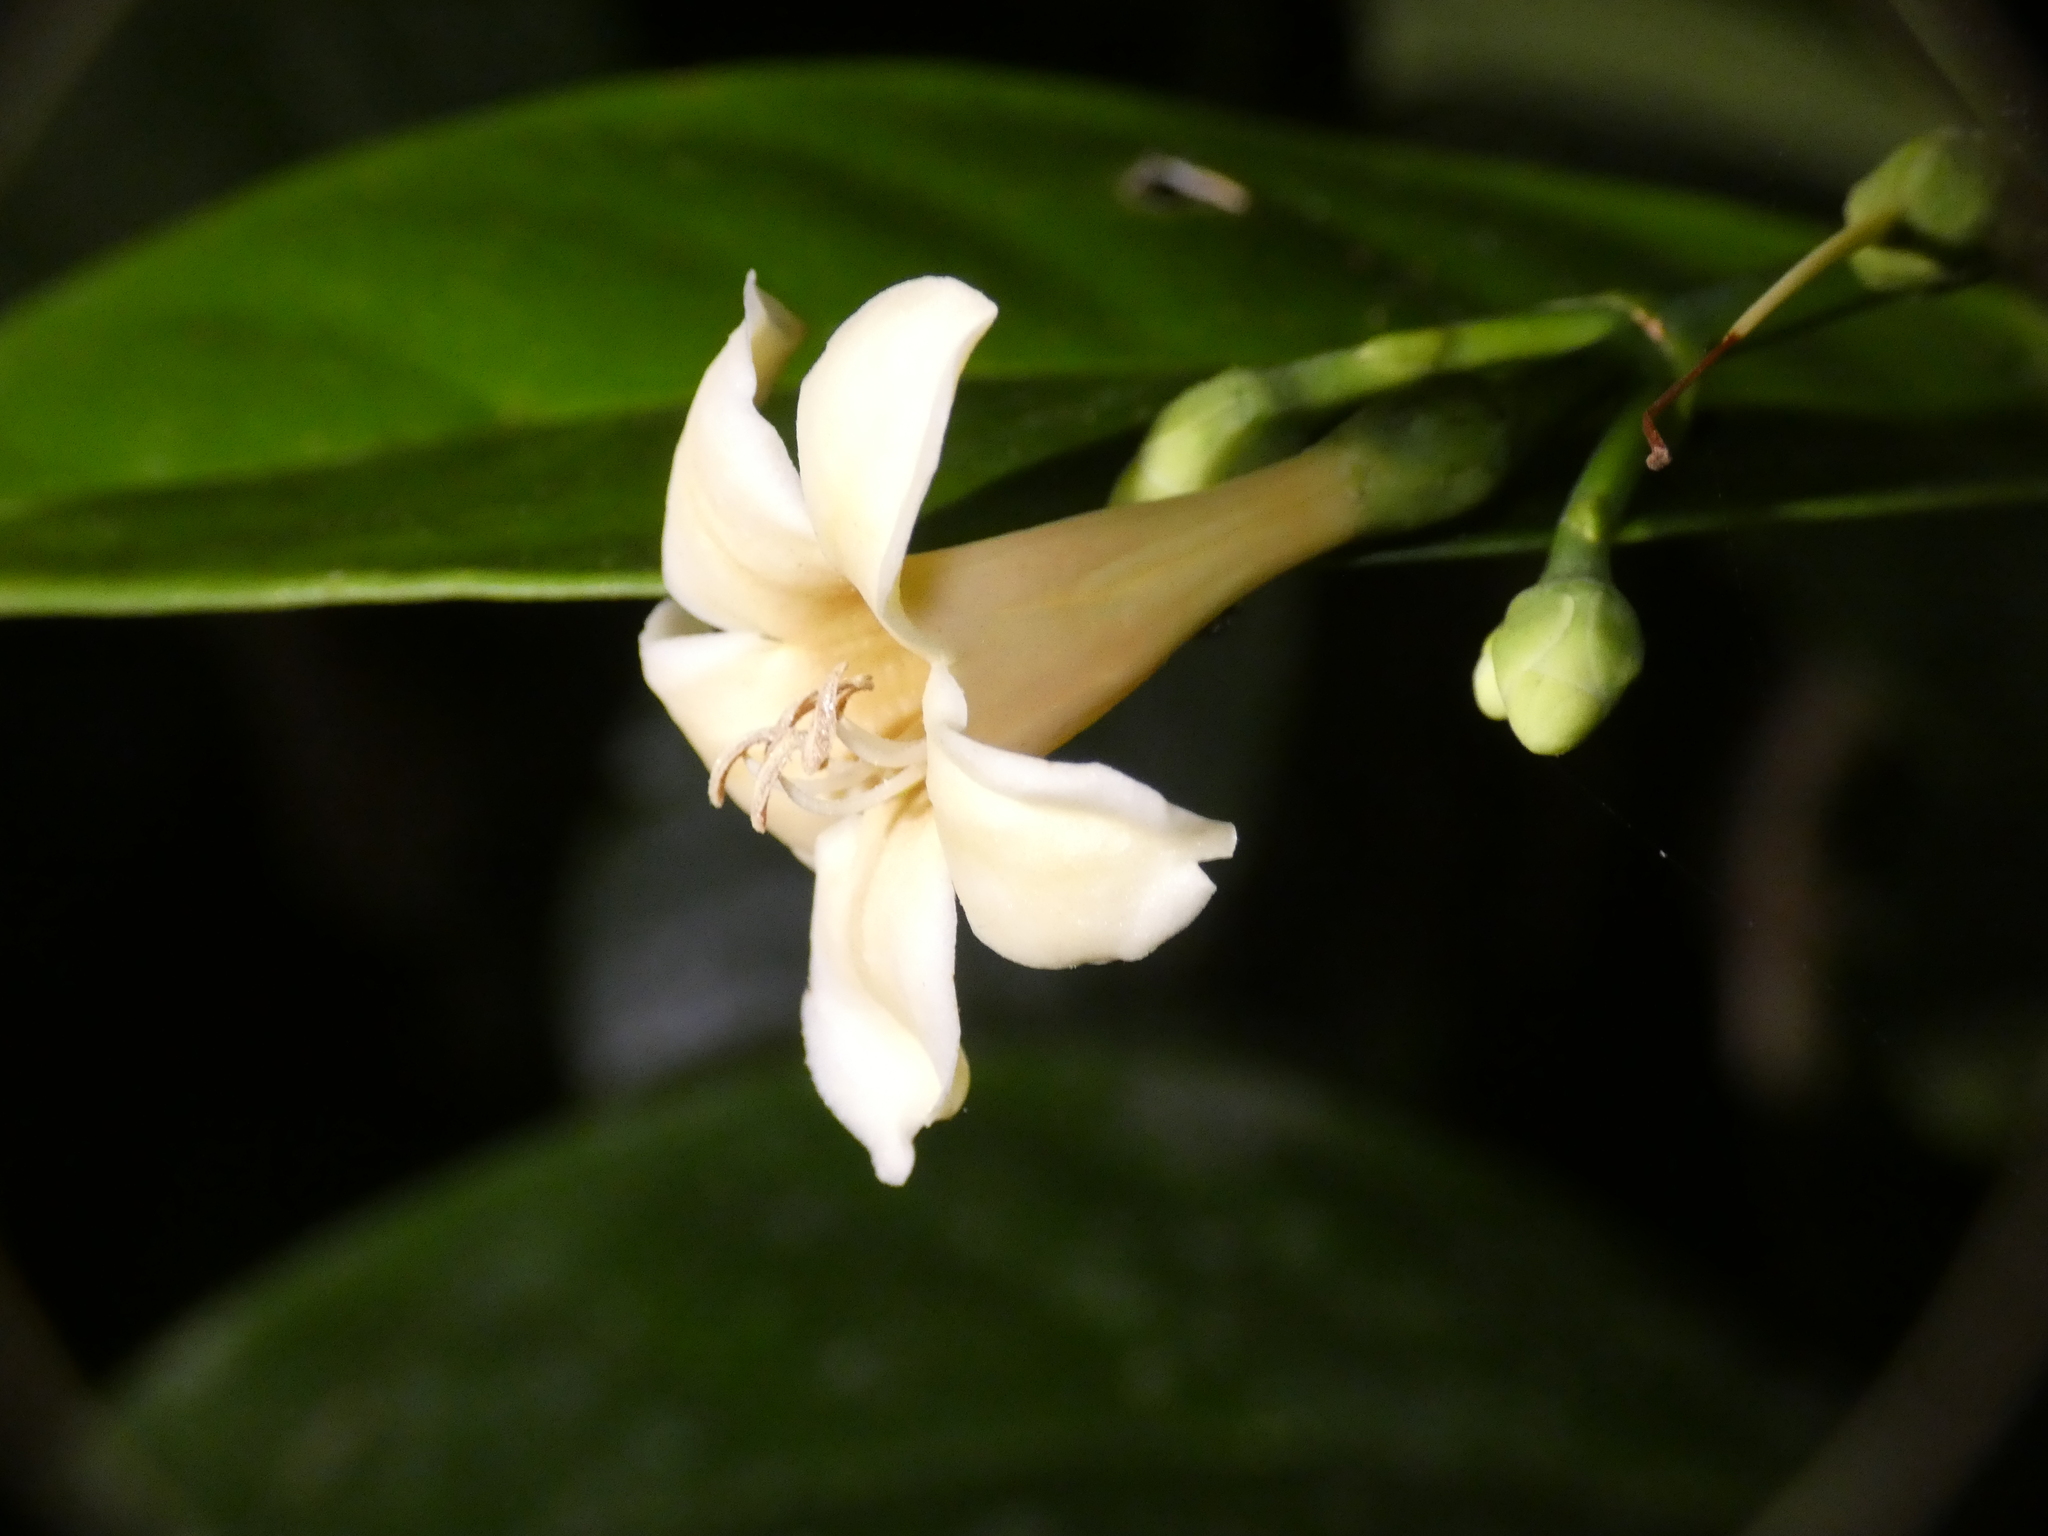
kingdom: Plantae
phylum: Tracheophyta
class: Magnoliopsida
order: Gentianales
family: Gentianaceae
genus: Fagraea
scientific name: Fagraea gracilipes
